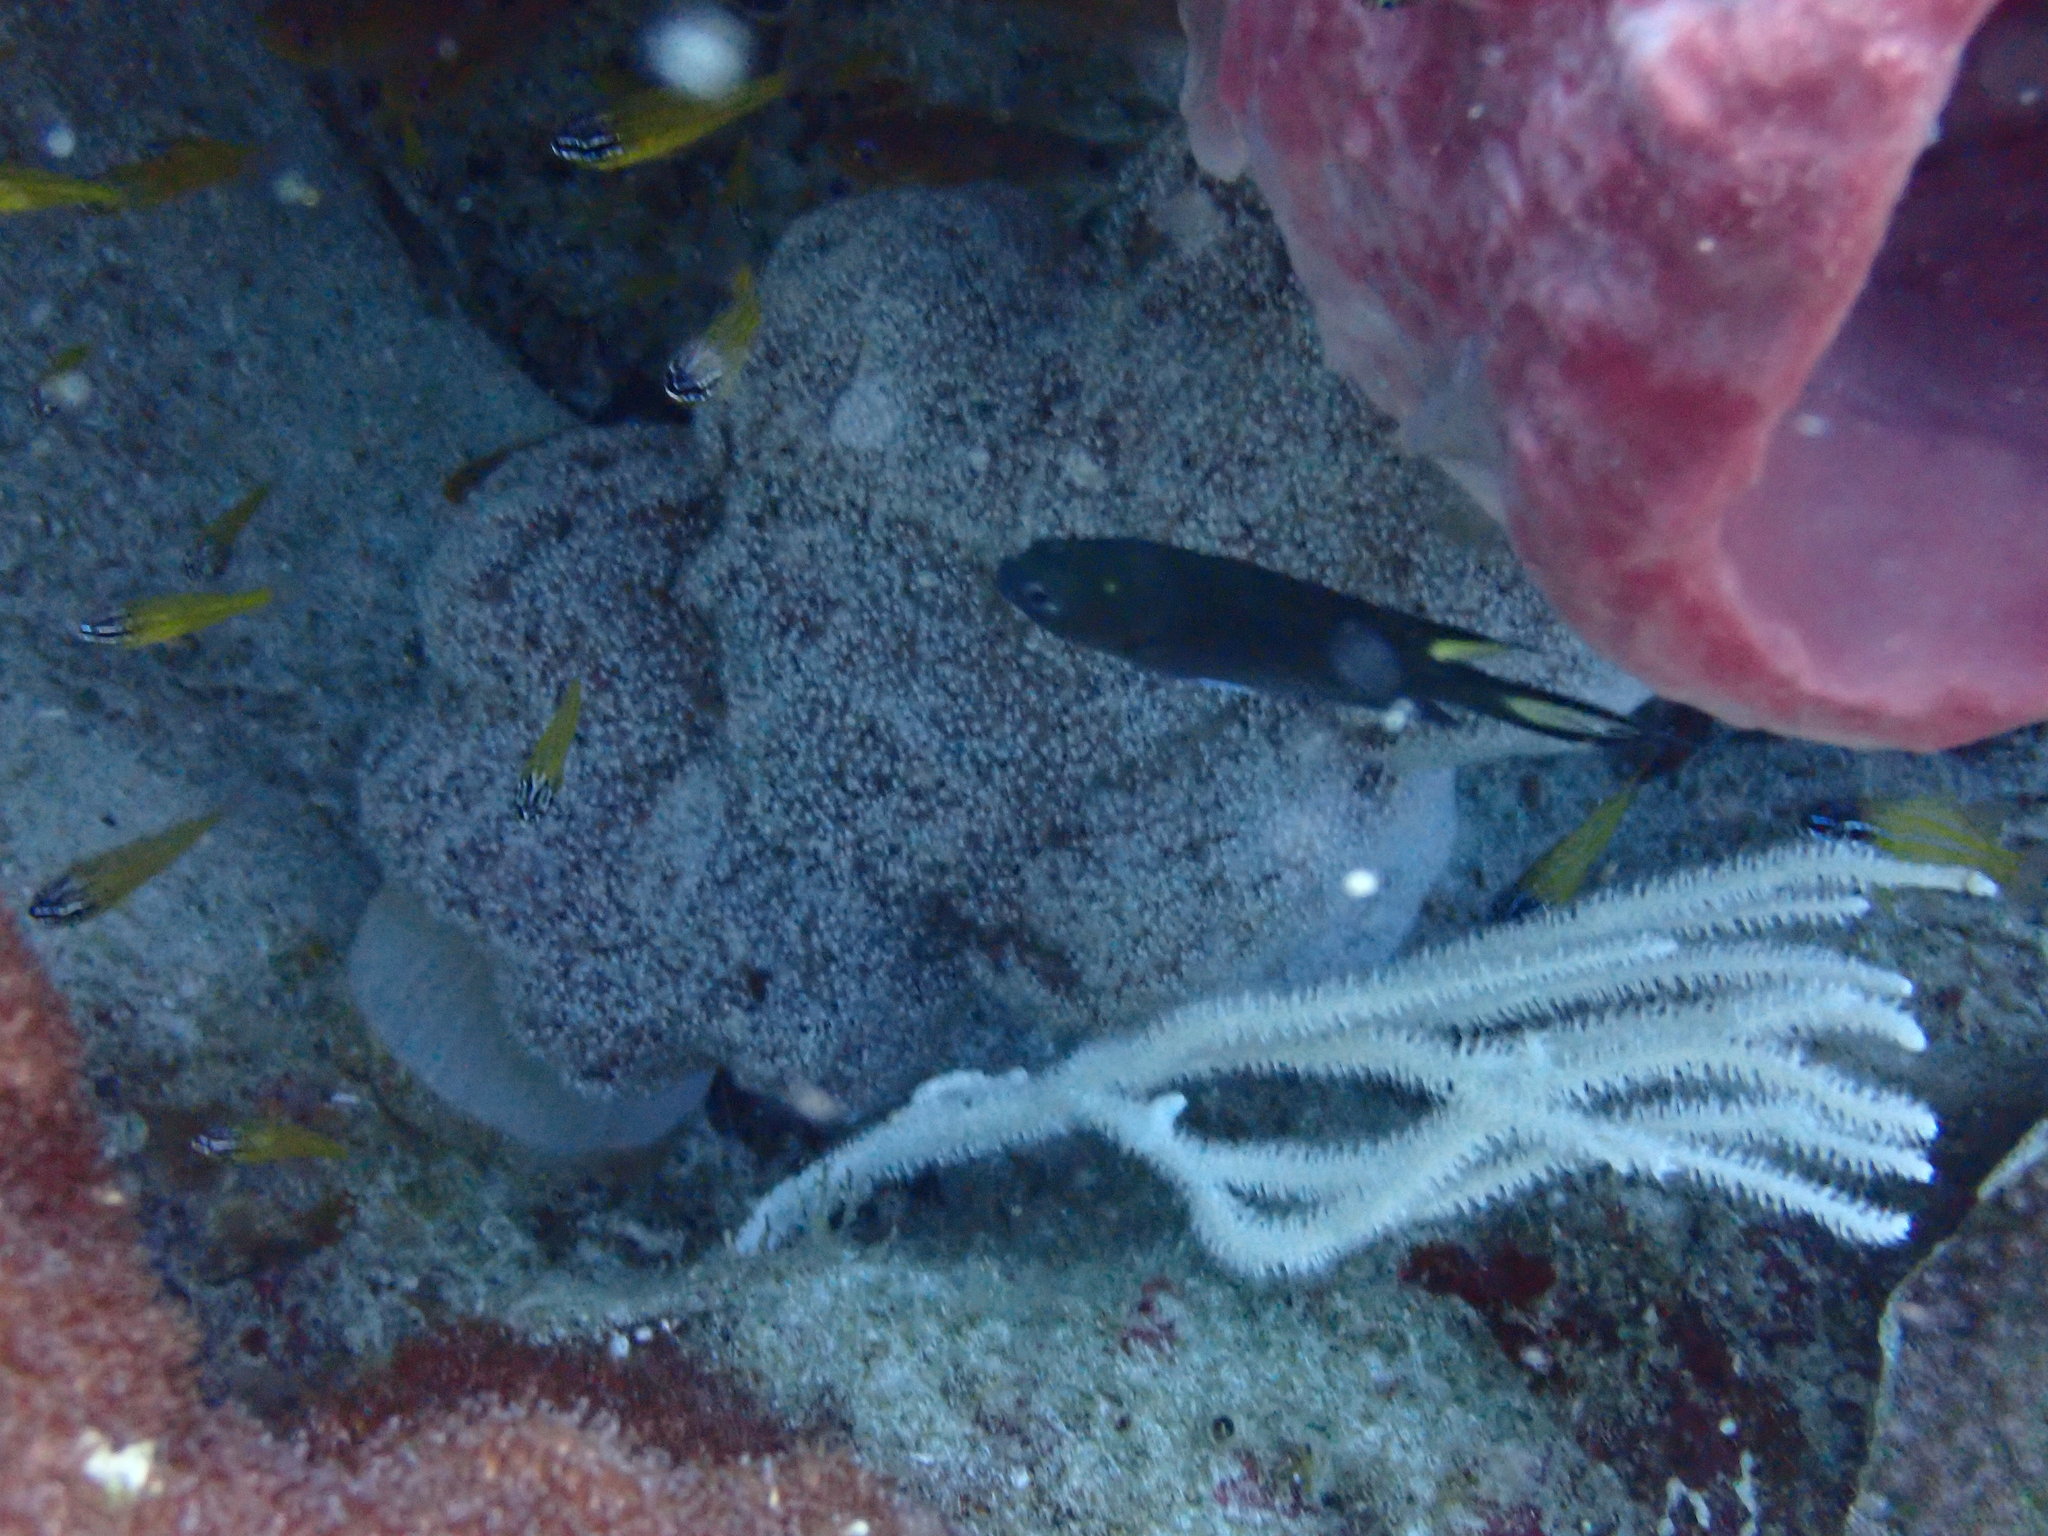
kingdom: Animalia
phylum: Chordata
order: Perciformes
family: Pomacentridae
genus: Neopomacentrus
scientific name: Neopomacentrus cyanomos
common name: Regal demoiselle
